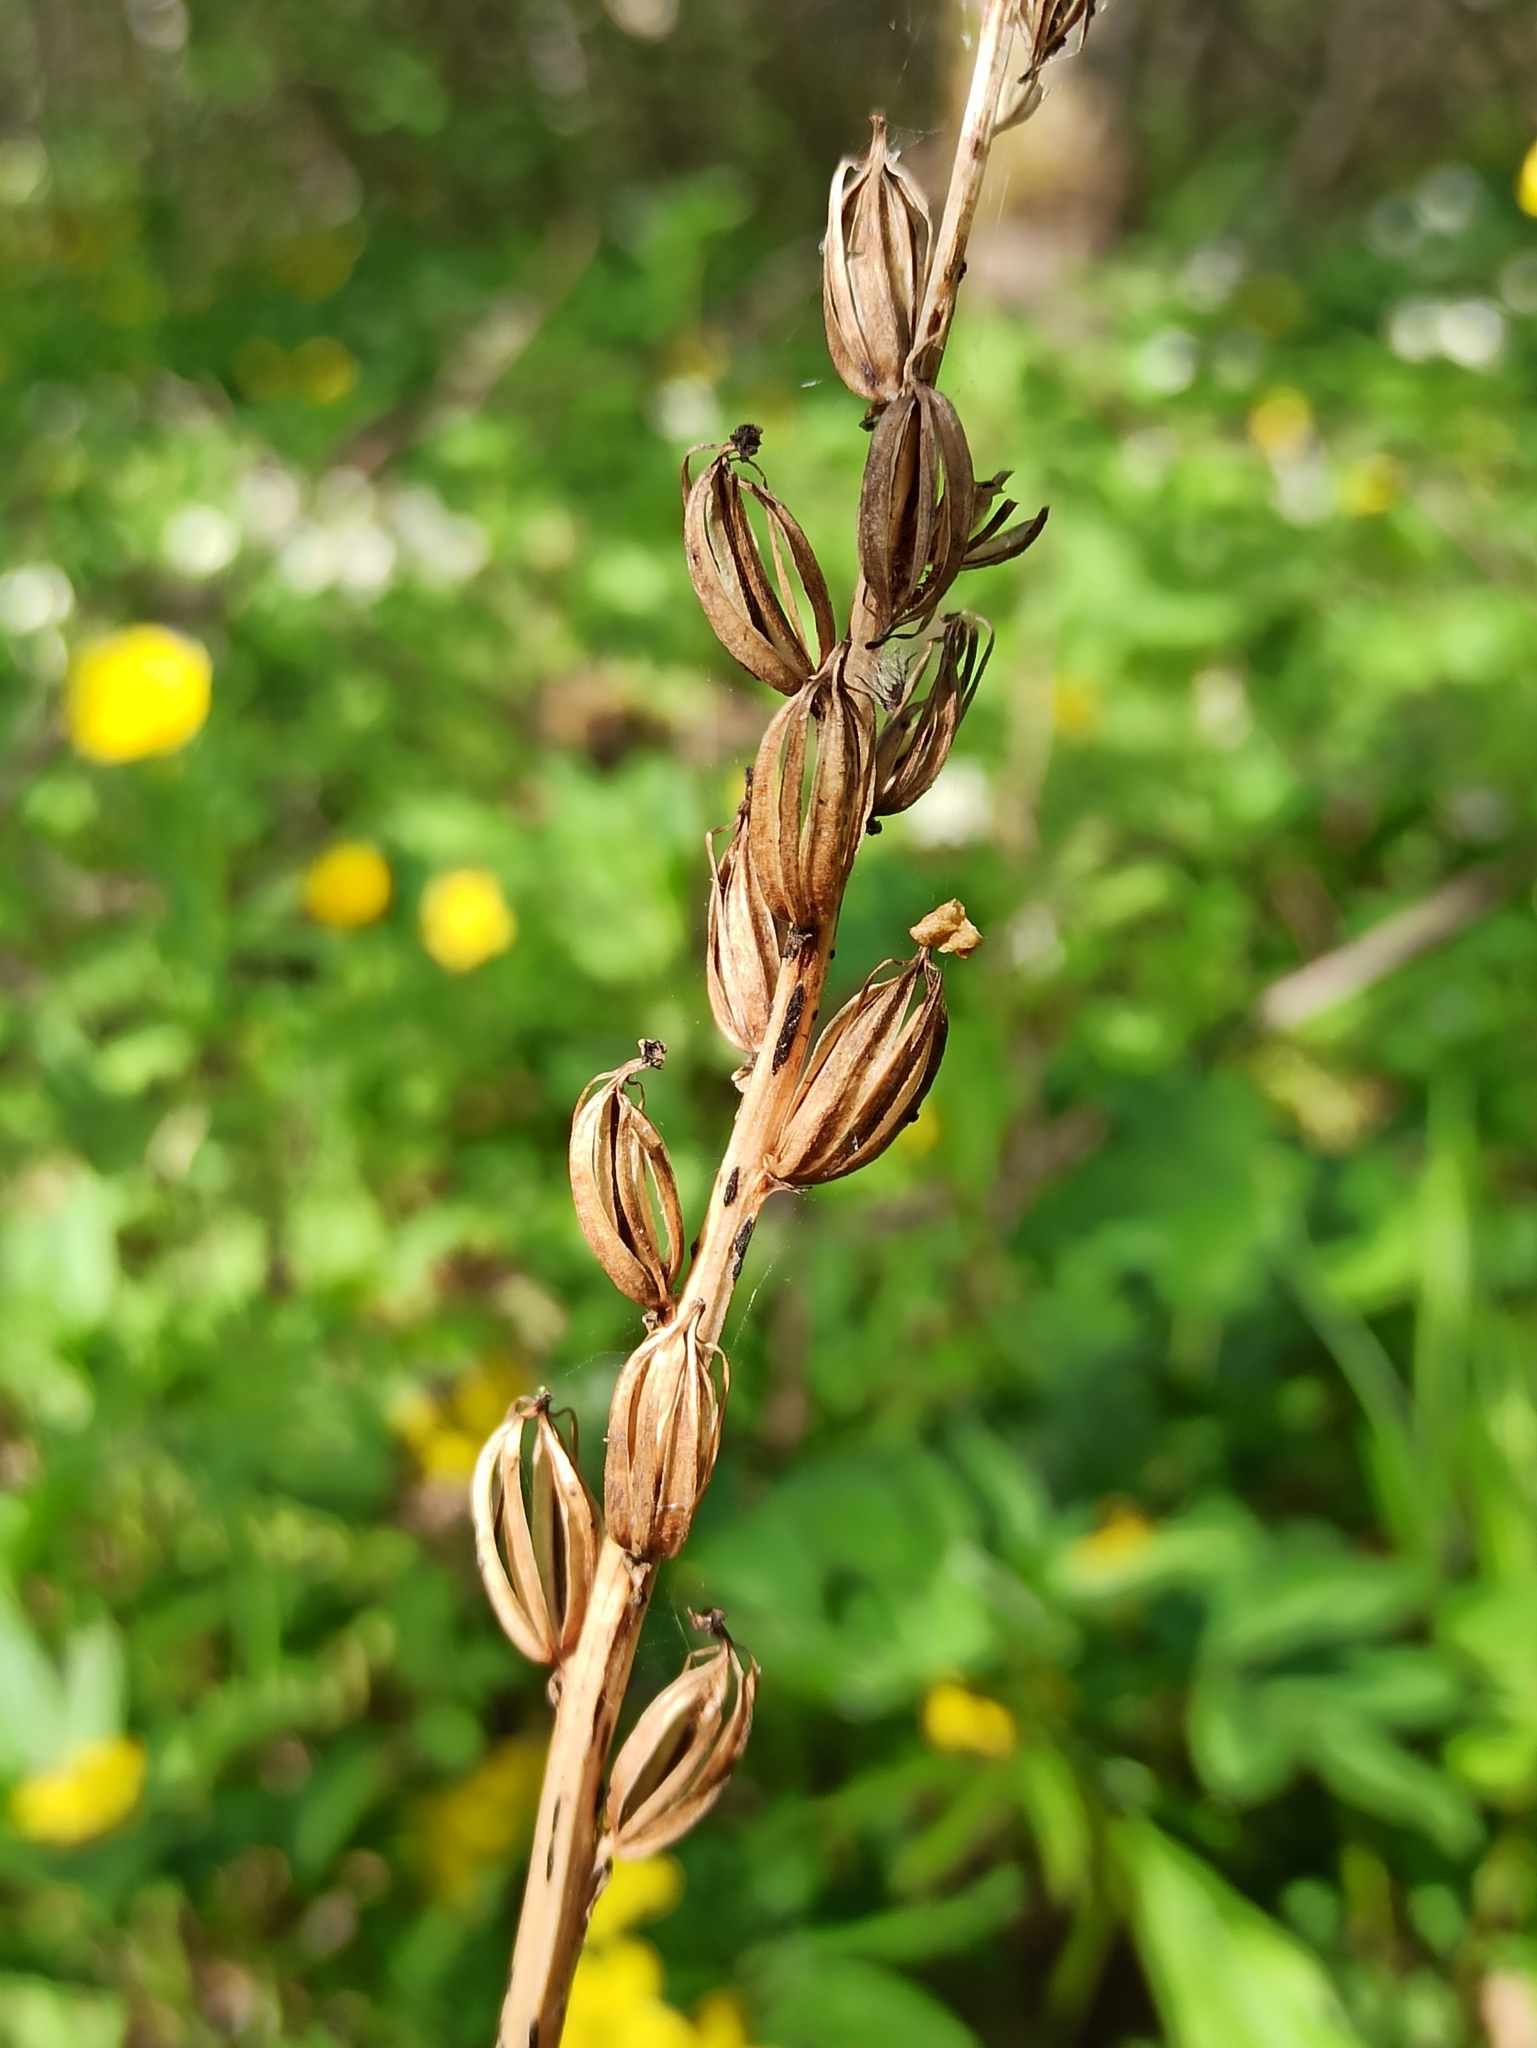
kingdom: Plantae
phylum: Tracheophyta
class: Liliopsida
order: Asparagales
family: Orchidaceae
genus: Platanthera
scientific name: Platanthera bifolia
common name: Lesser butterfly-orchid
